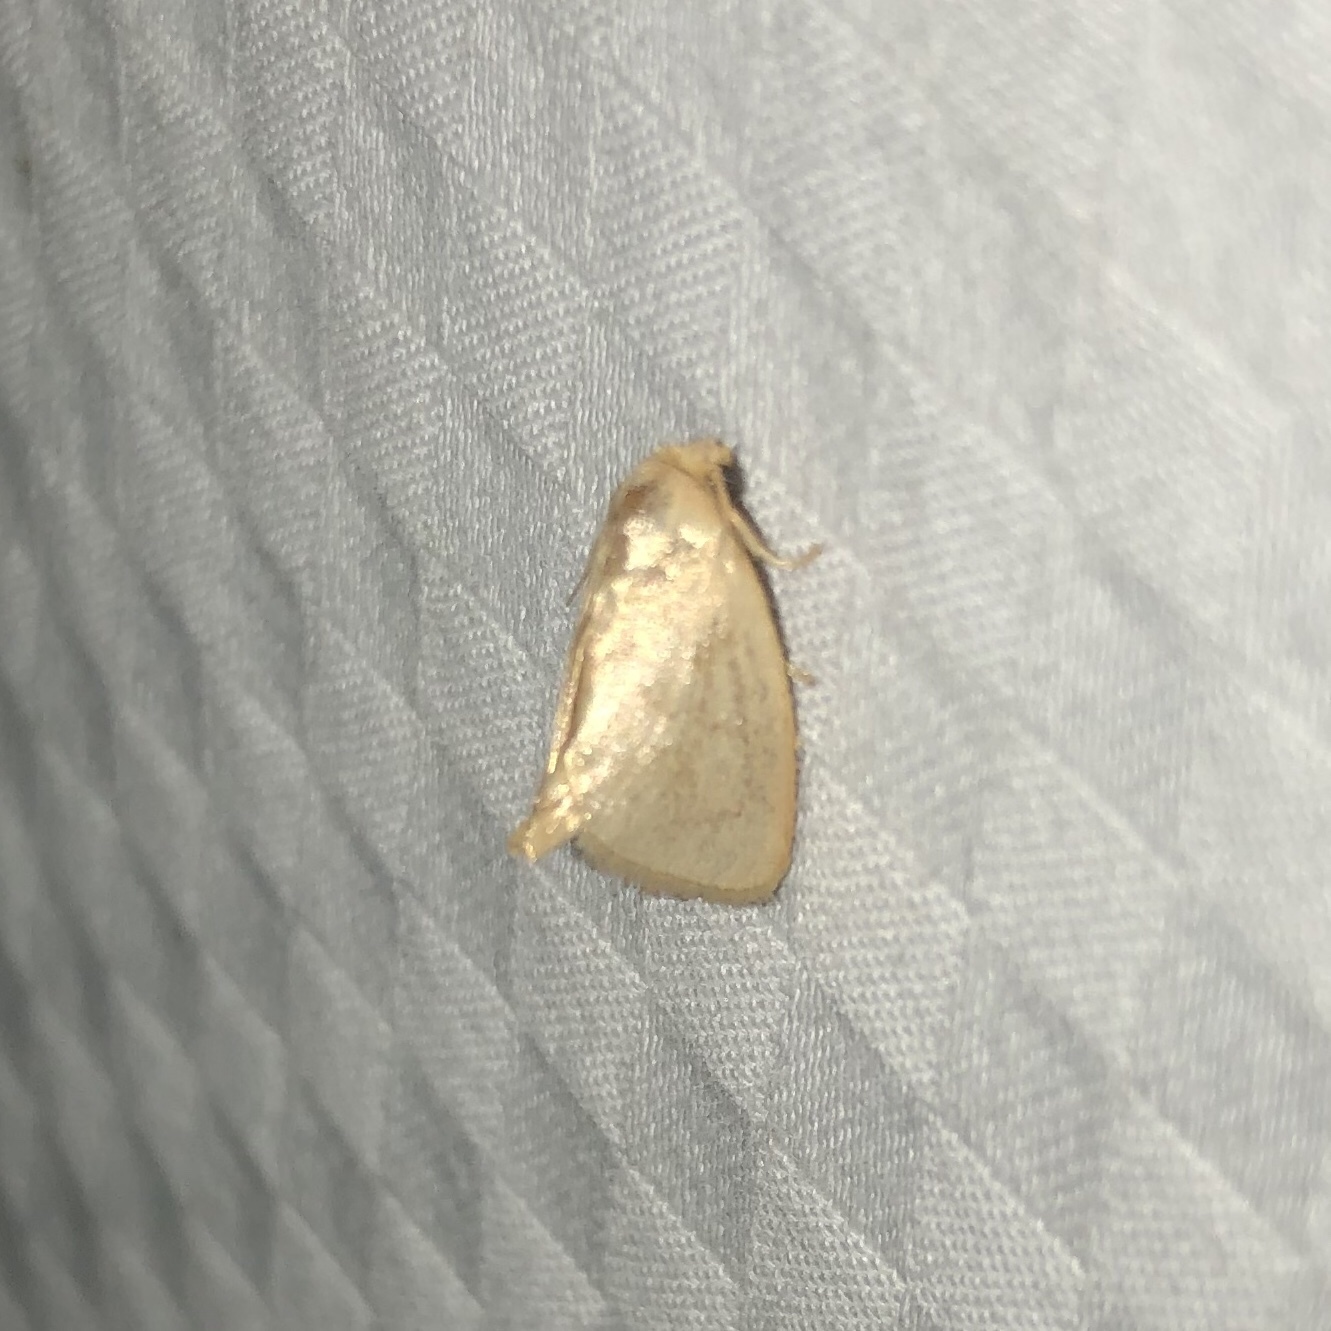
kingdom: Animalia
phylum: Arthropoda
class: Insecta
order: Lepidoptera
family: Limacodidae
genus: Tortricidia
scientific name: Tortricidia pallida
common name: Red-crossed button slug moth
